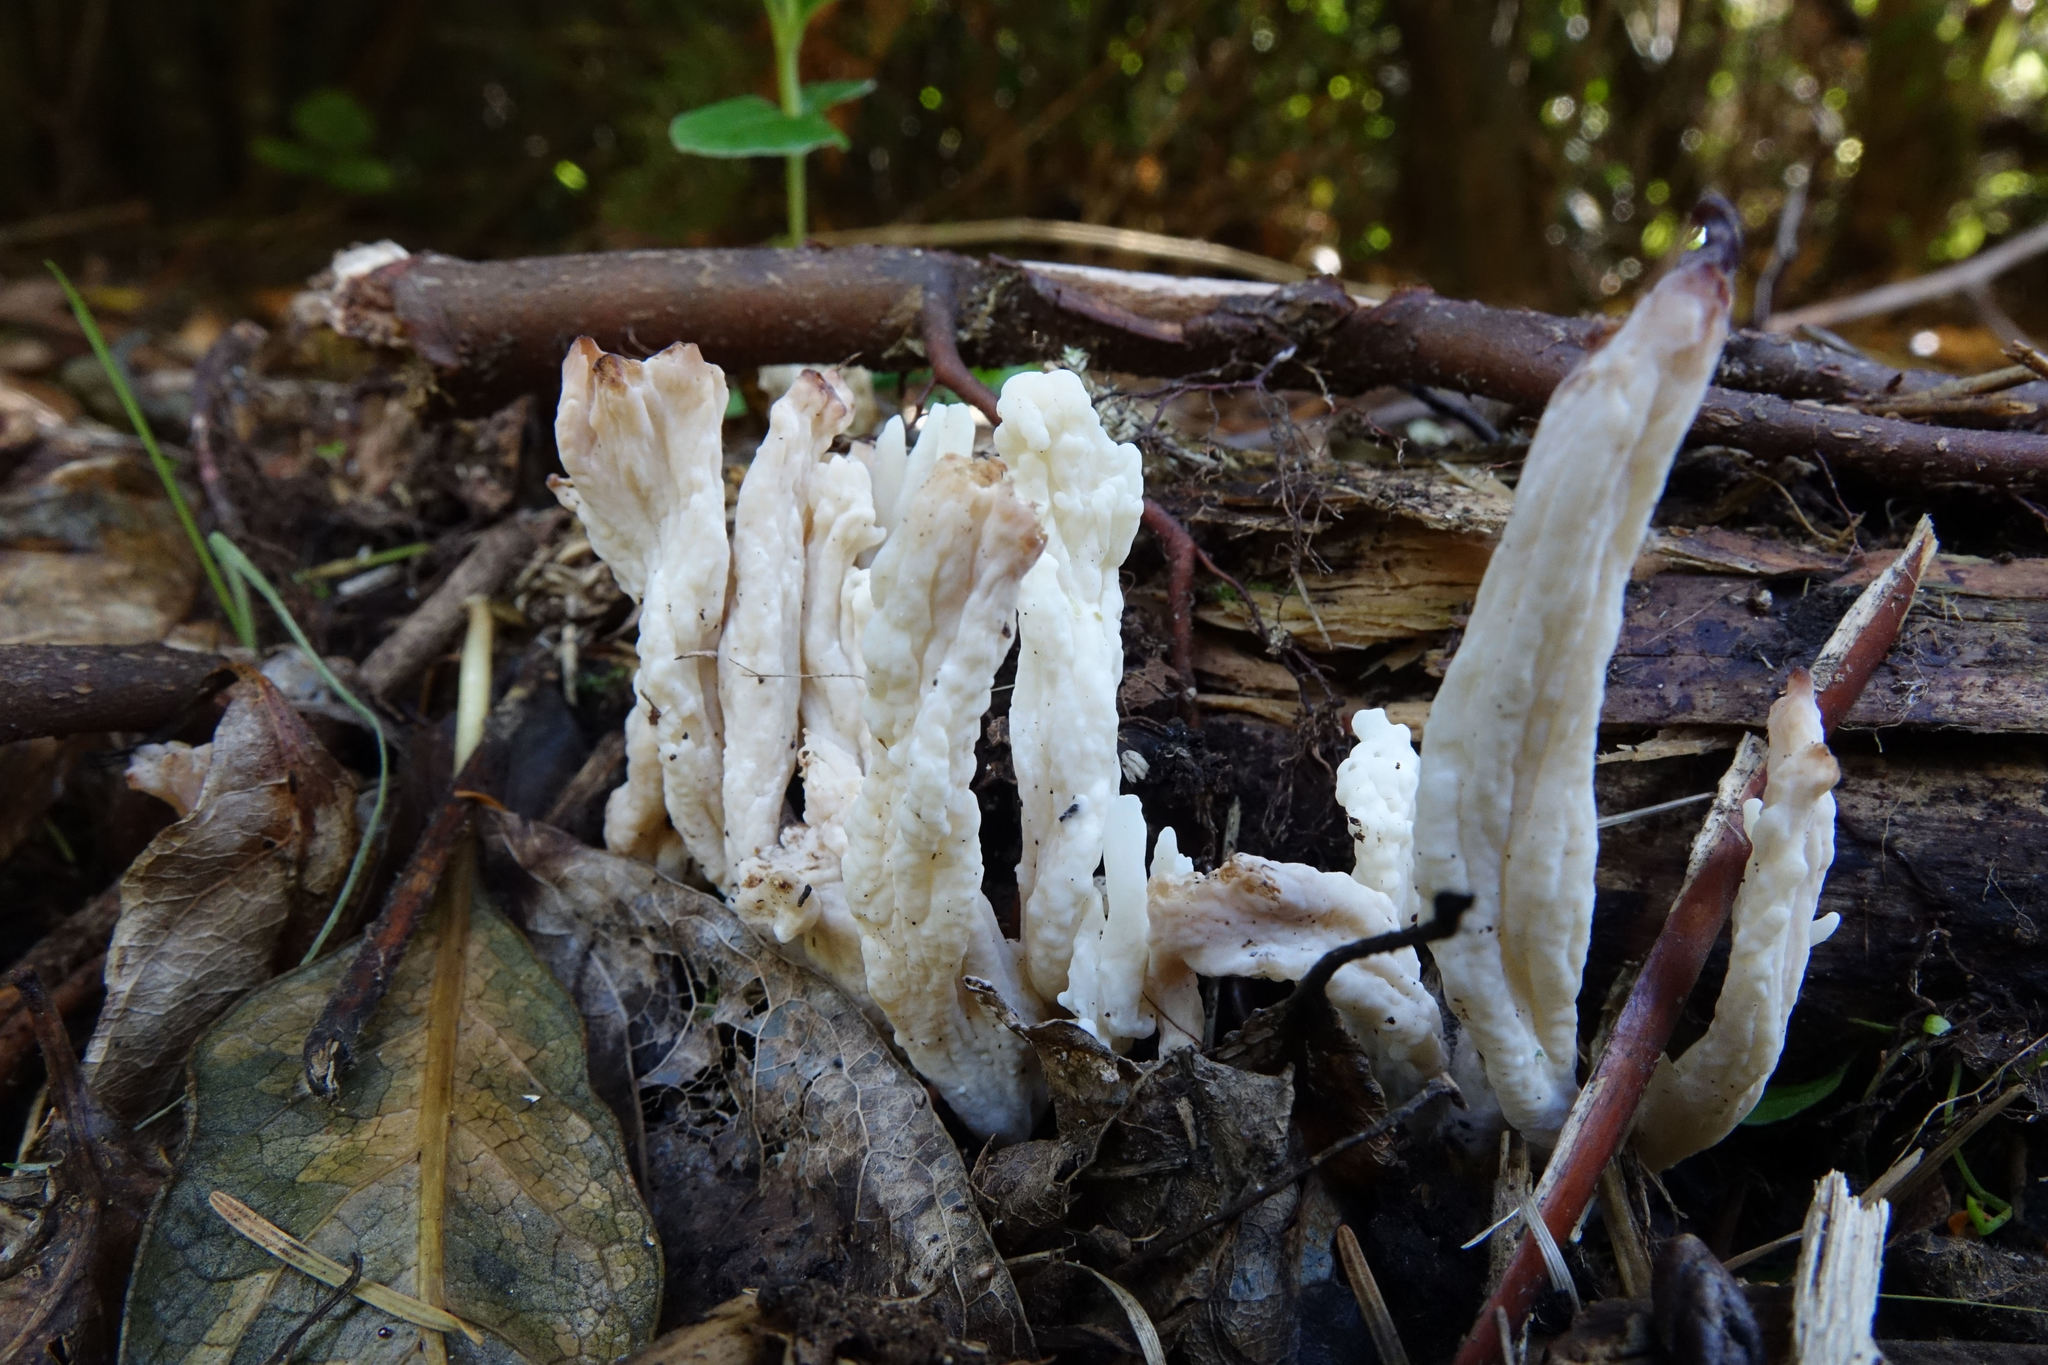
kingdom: Fungi
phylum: Basidiomycota
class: Agaricomycetes
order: Cantharellales
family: Hydnaceae
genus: Clavulina
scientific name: Clavulina rugosa
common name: Wrinkled club
